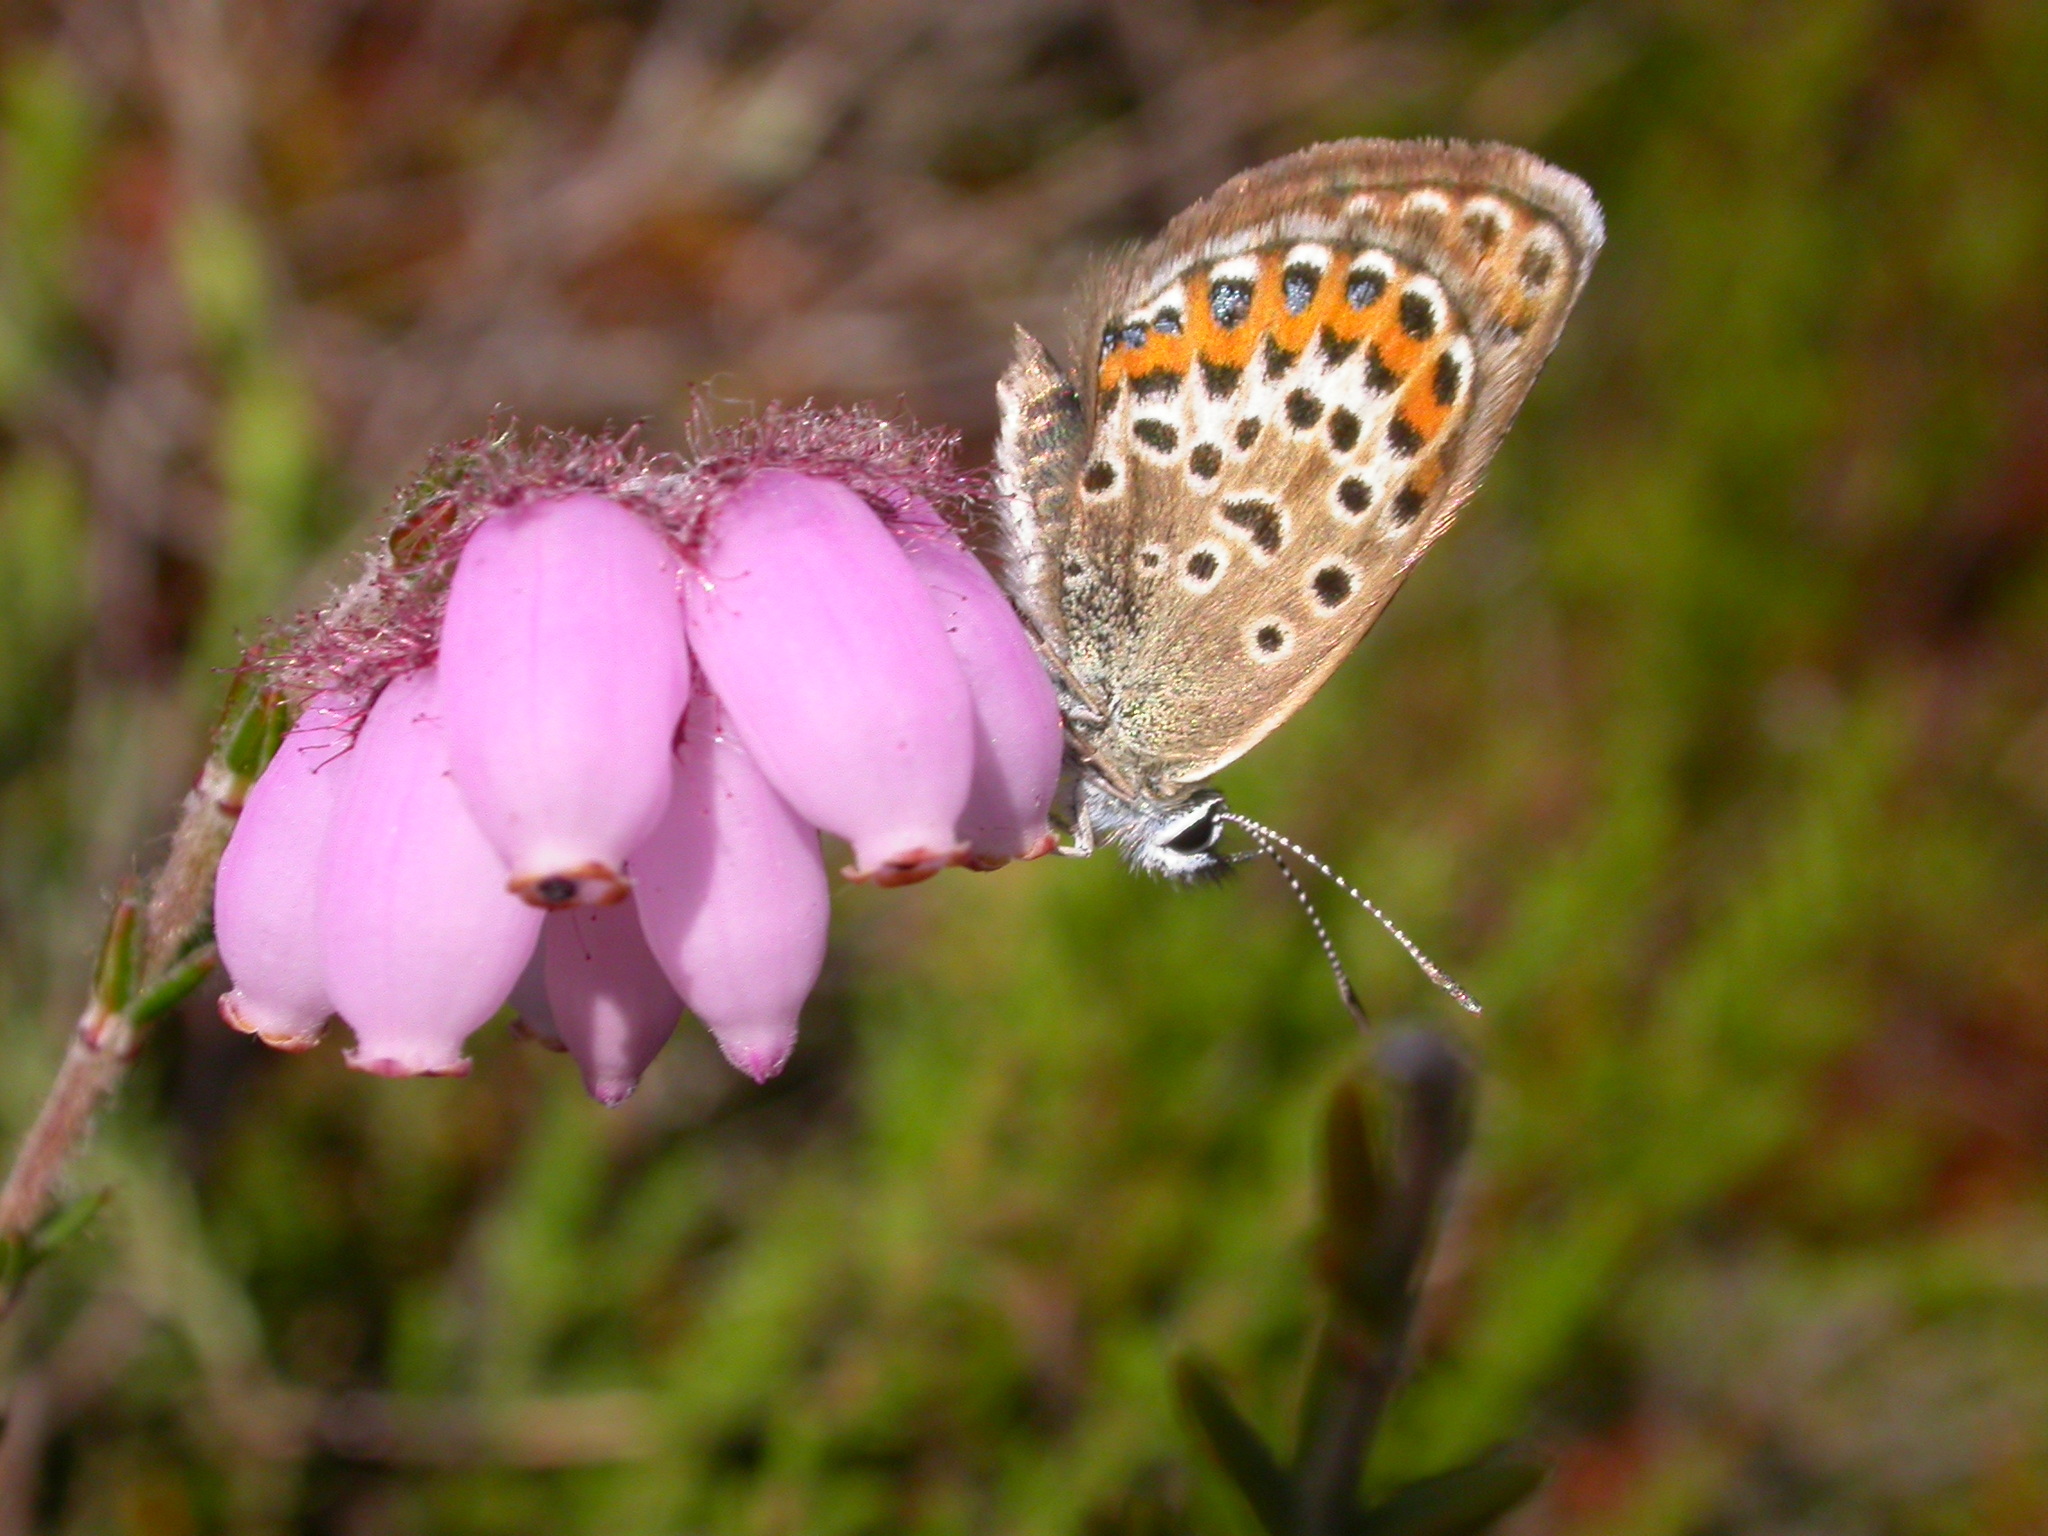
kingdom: Animalia
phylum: Arthropoda
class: Insecta
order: Lepidoptera
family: Lycaenidae
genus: Plebejus
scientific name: Plebejus argus
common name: Silver-studded blue
